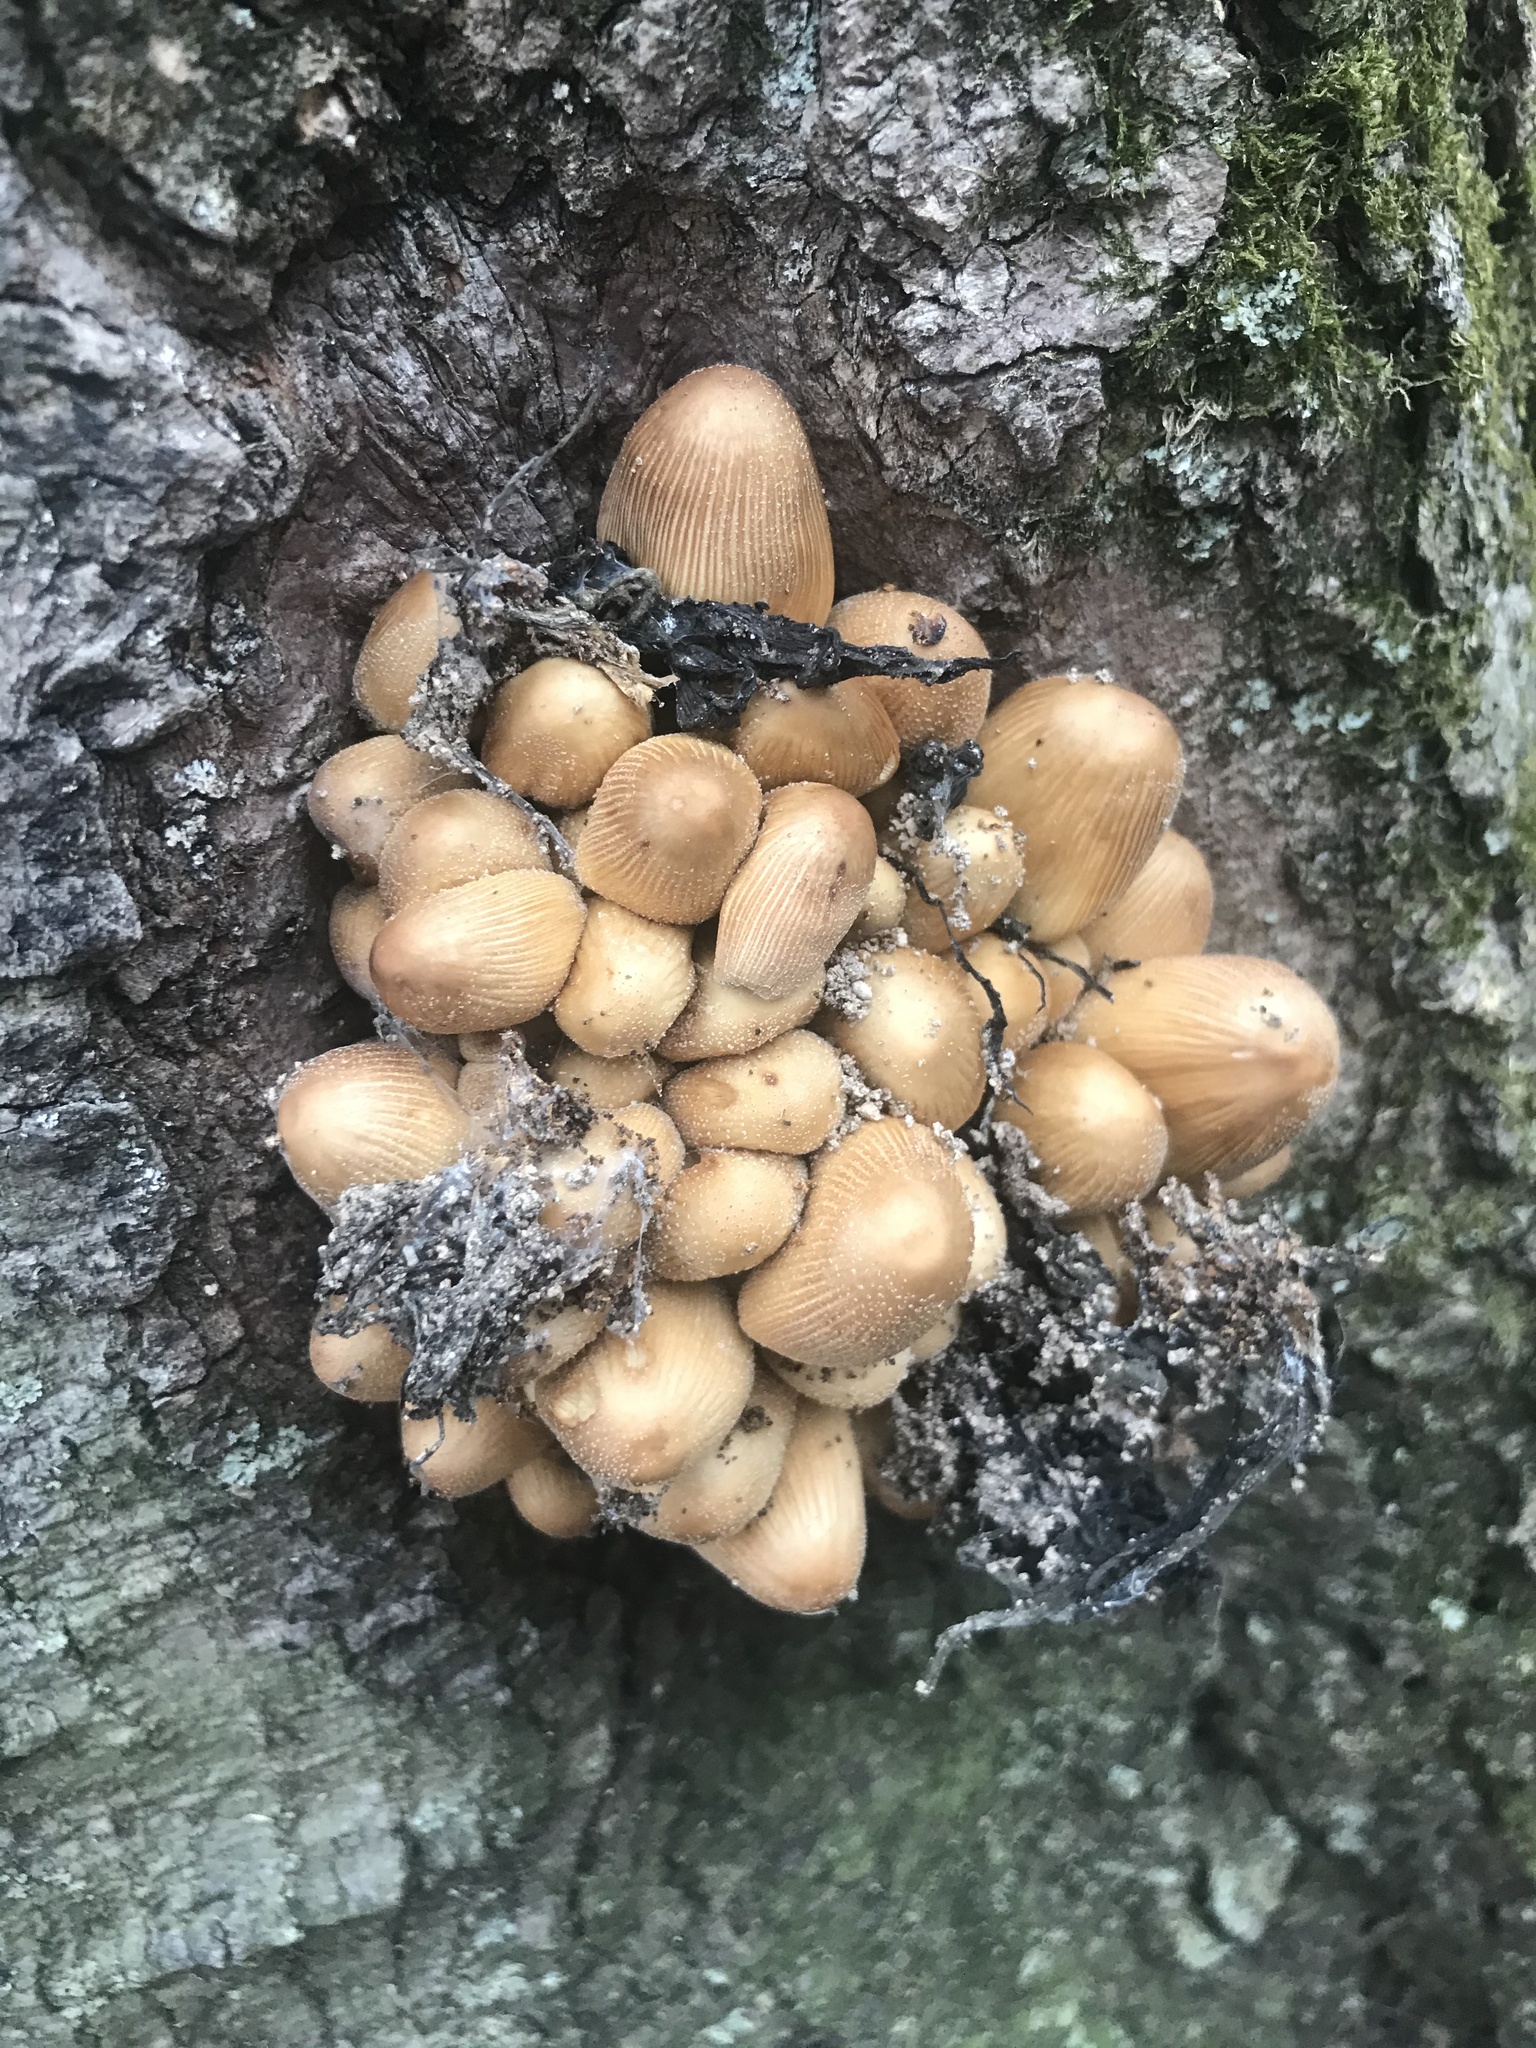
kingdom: Fungi
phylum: Basidiomycota
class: Agaricomycetes
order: Agaricales
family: Psathyrellaceae
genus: Coprinellus
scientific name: Coprinellus micaceus
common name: Glistening ink-cap
